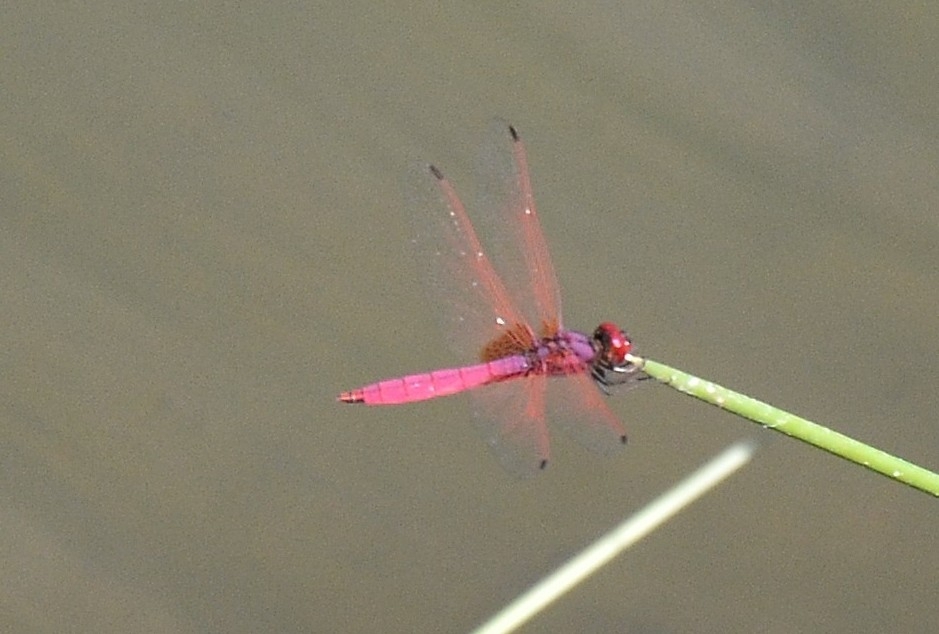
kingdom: Animalia
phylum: Arthropoda
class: Insecta
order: Odonata
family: Libellulidae
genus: Trithemis
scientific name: Trithemis aurora
